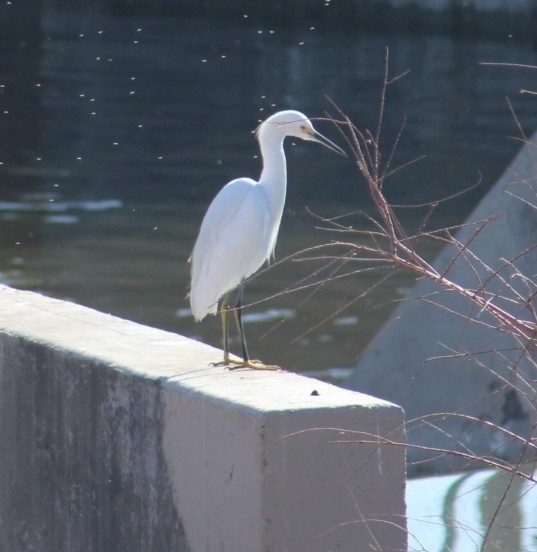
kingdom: Animalia
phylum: Chordata
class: Aves
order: Pelecaniformes
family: Ardeidae
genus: Egretta
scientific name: Egretta thula
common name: Snowy egret
